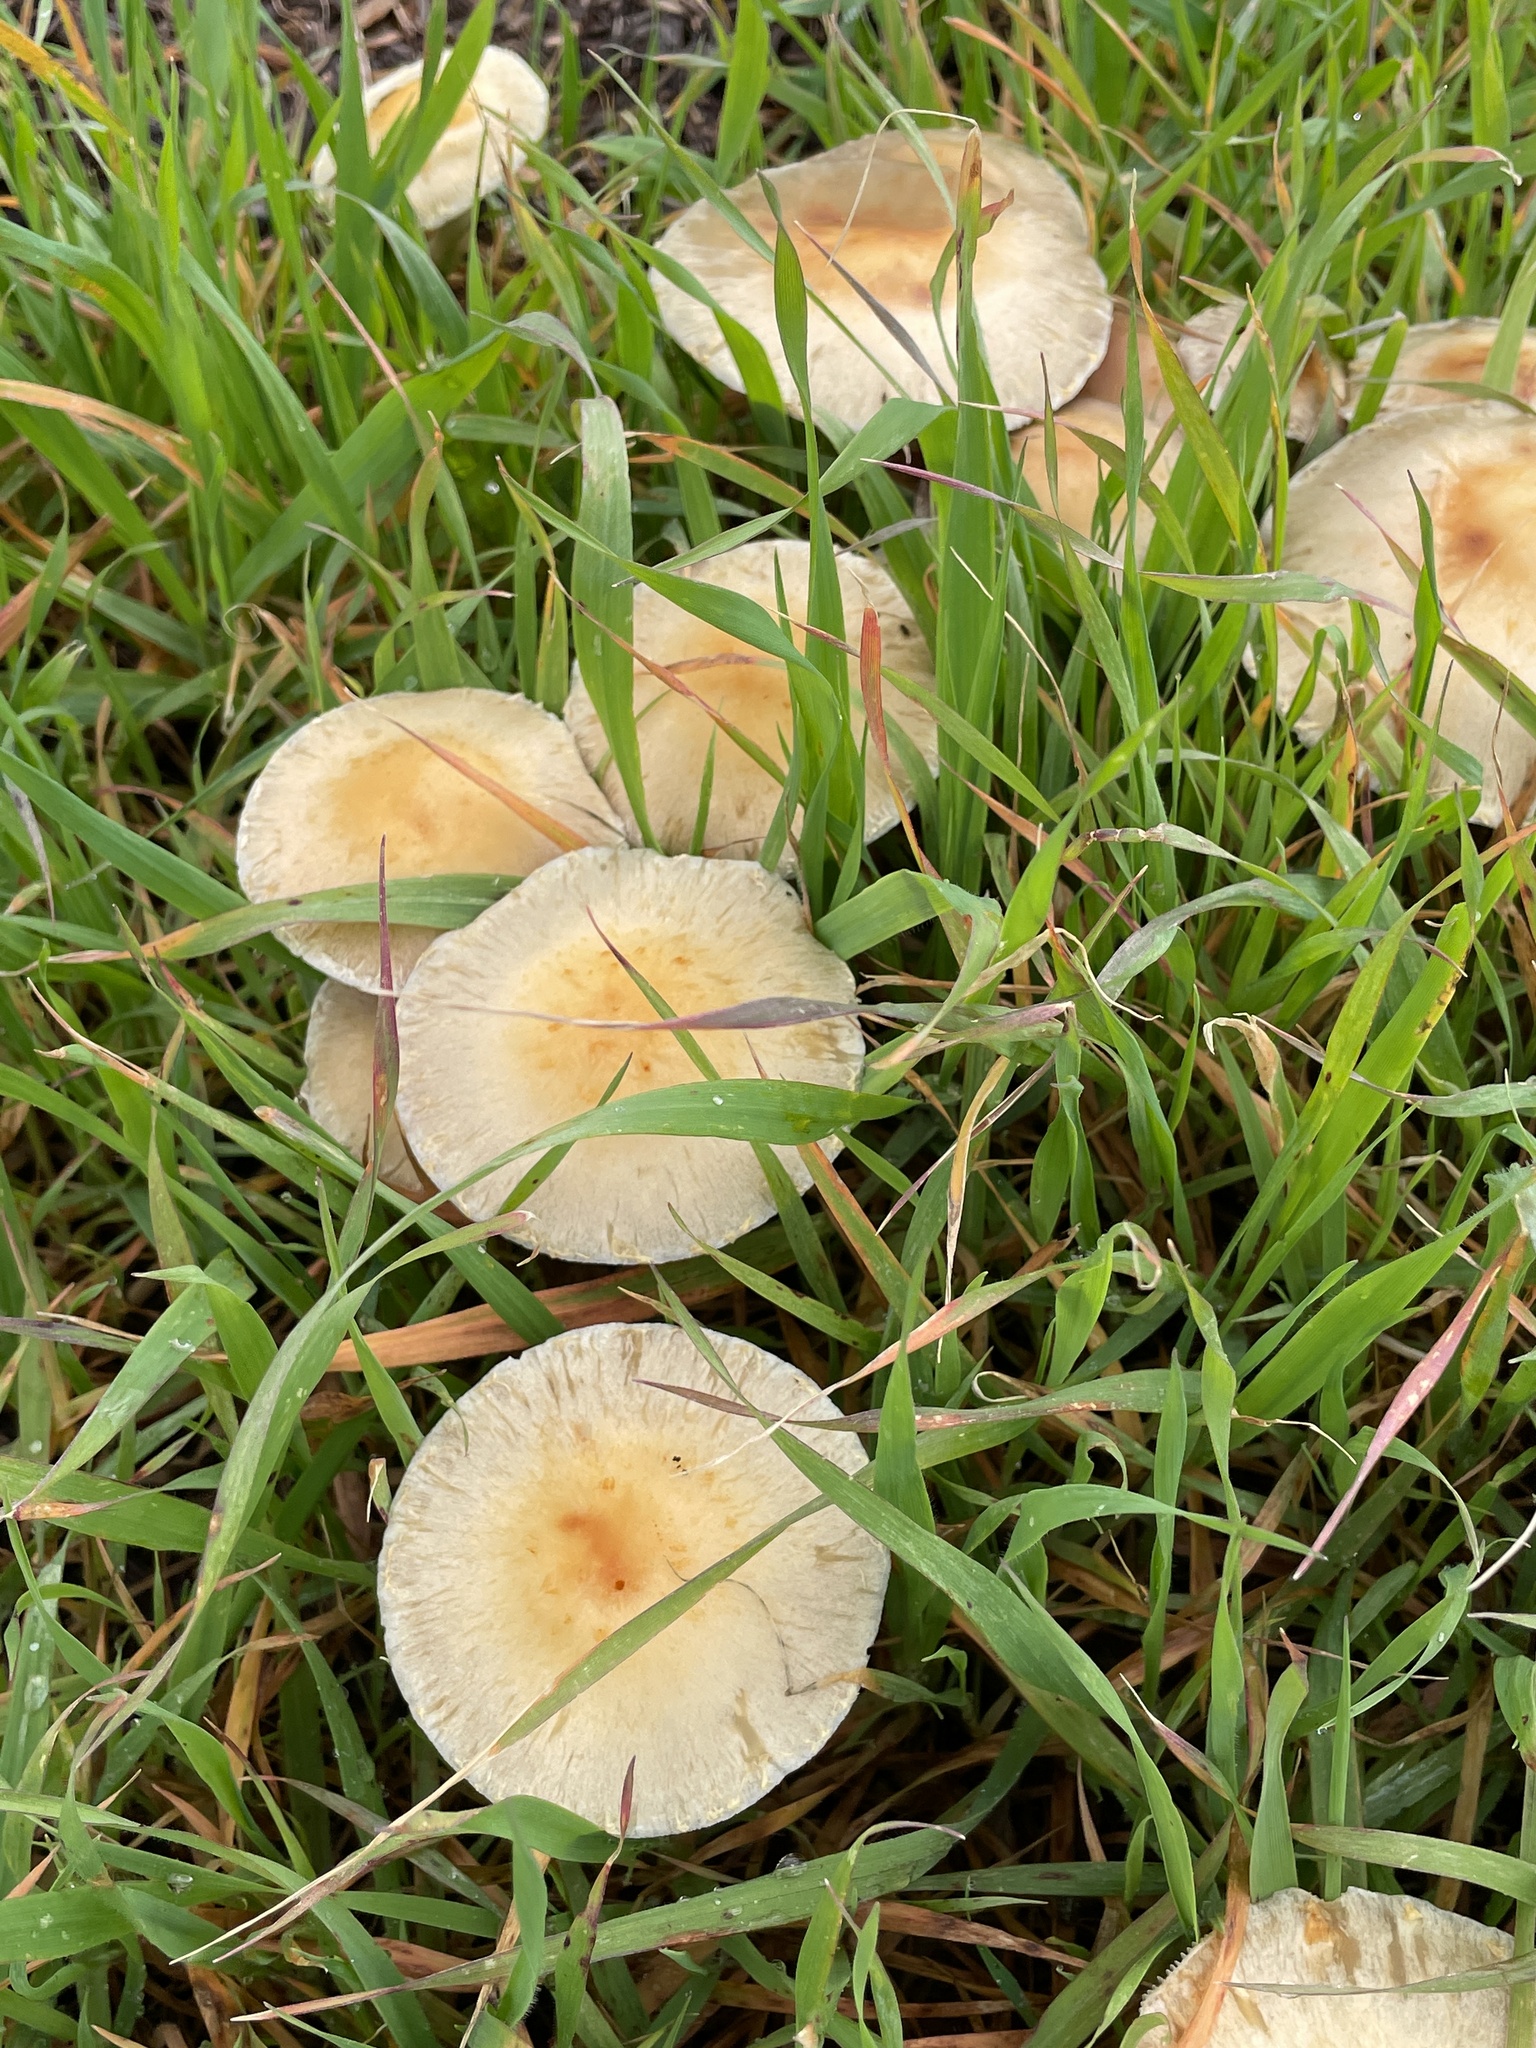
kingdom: Fungi
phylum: Basidiomycota
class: Agaricomycetes
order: Agaricales
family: Strophariaceae
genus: Leratiomyces
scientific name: Leratiomyces percevalii
